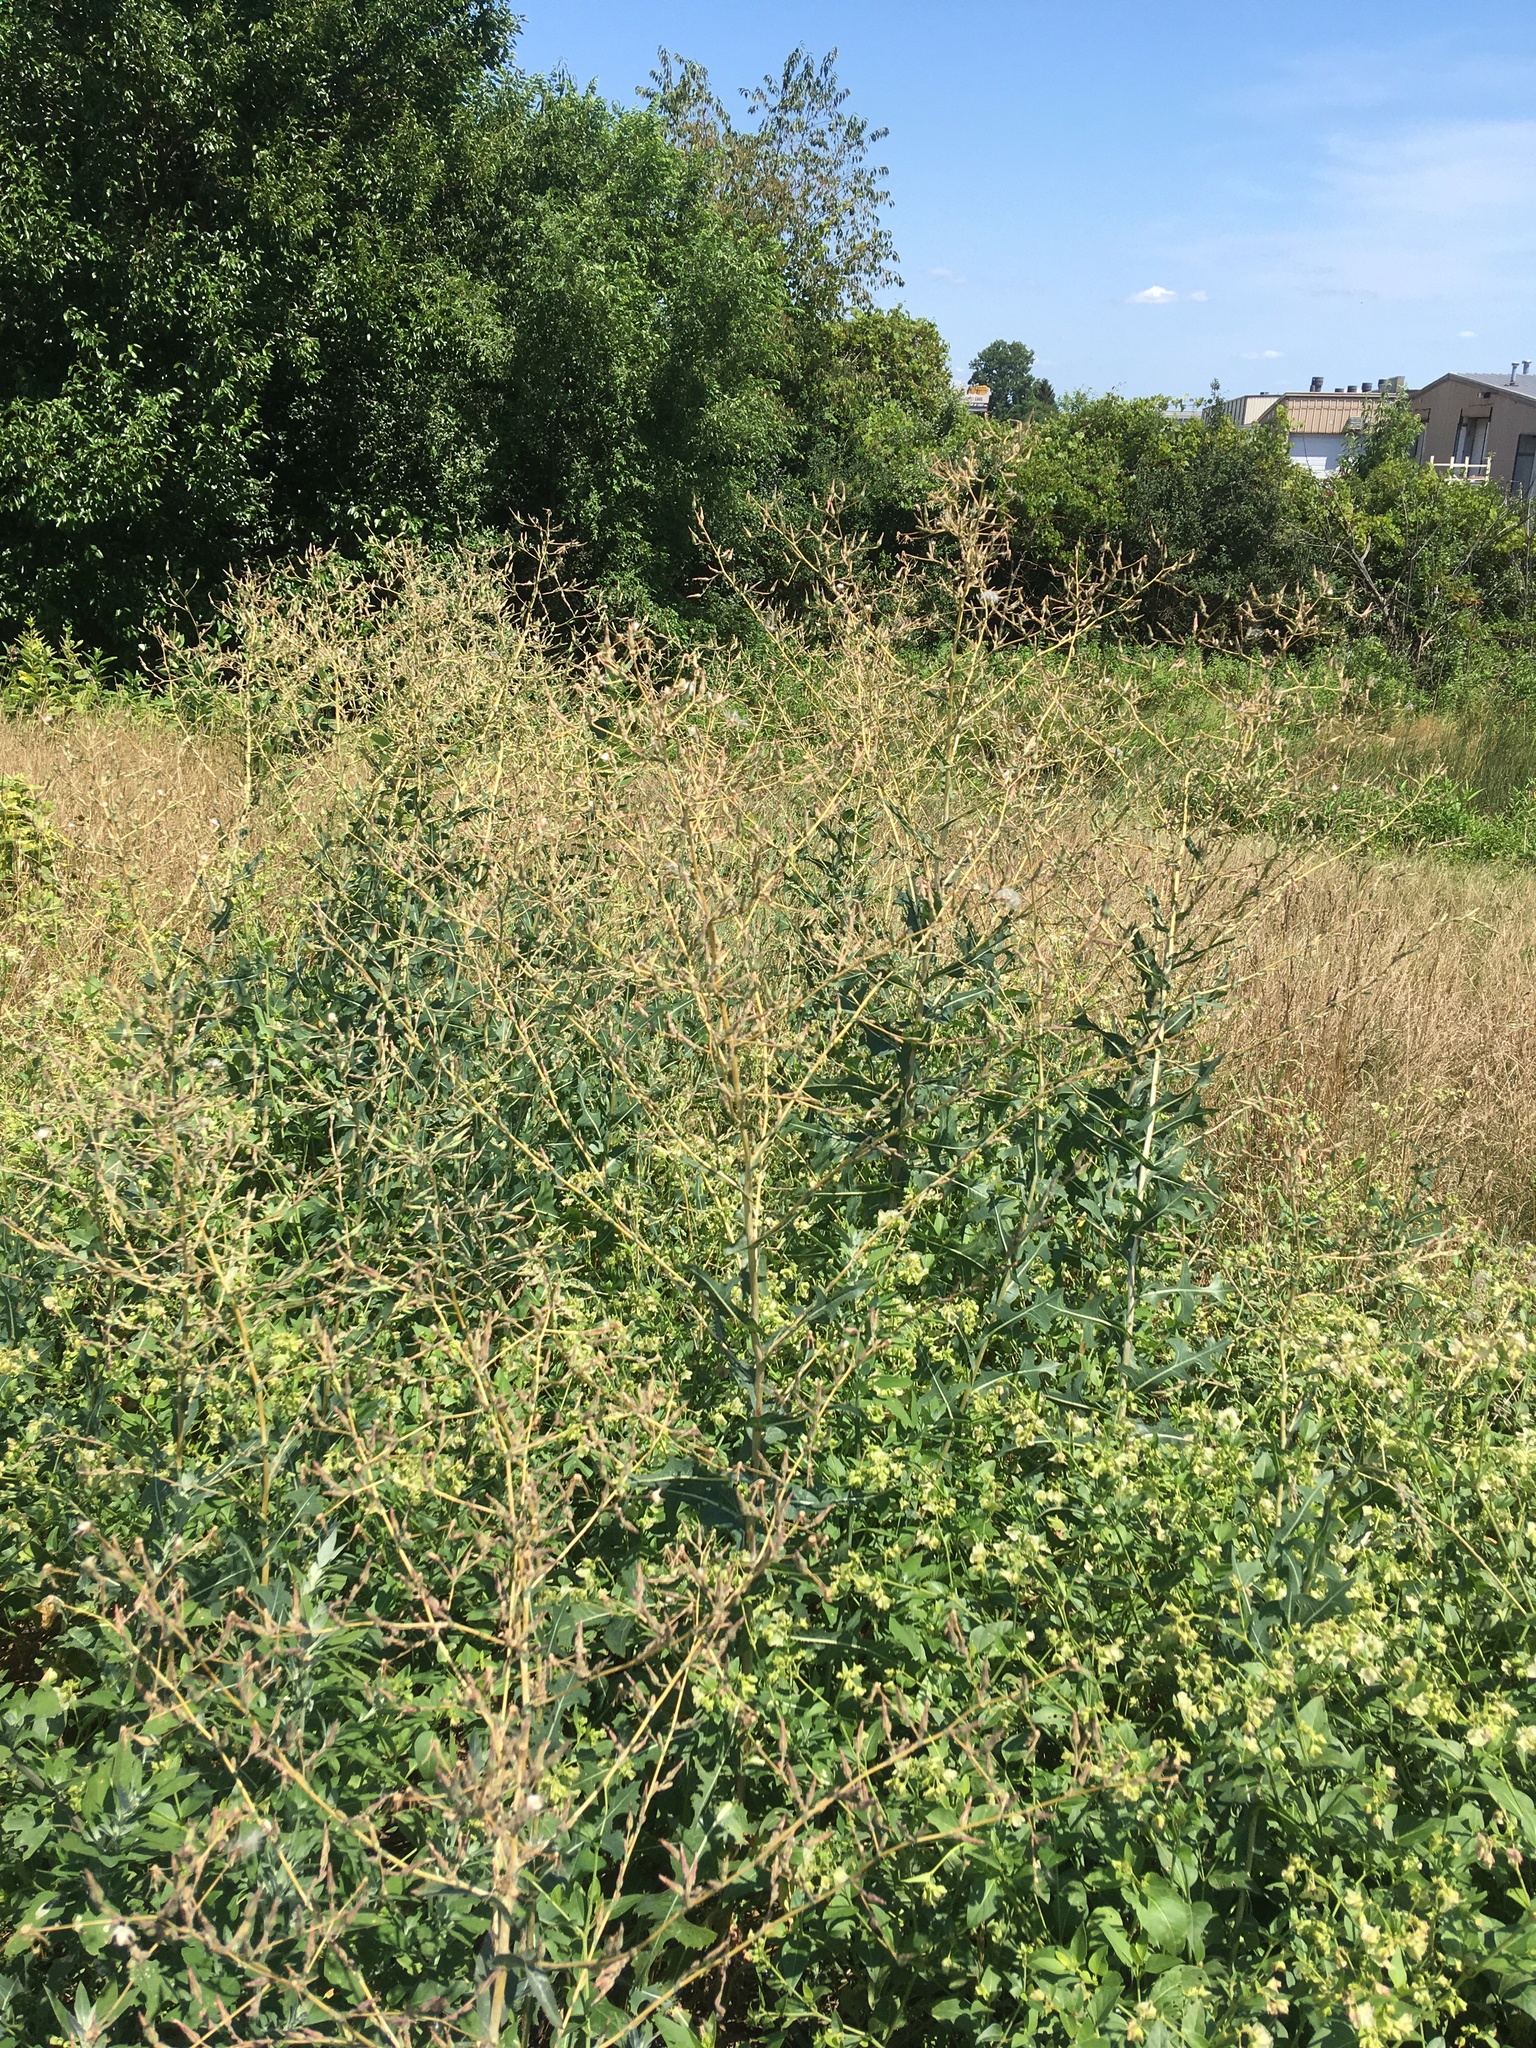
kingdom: Plantae
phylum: Tracheophyta
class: Magnoliopsida
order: Asterales
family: Asteraceae
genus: Lactuca
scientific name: Lactuca serriola
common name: Prickly lettuce
